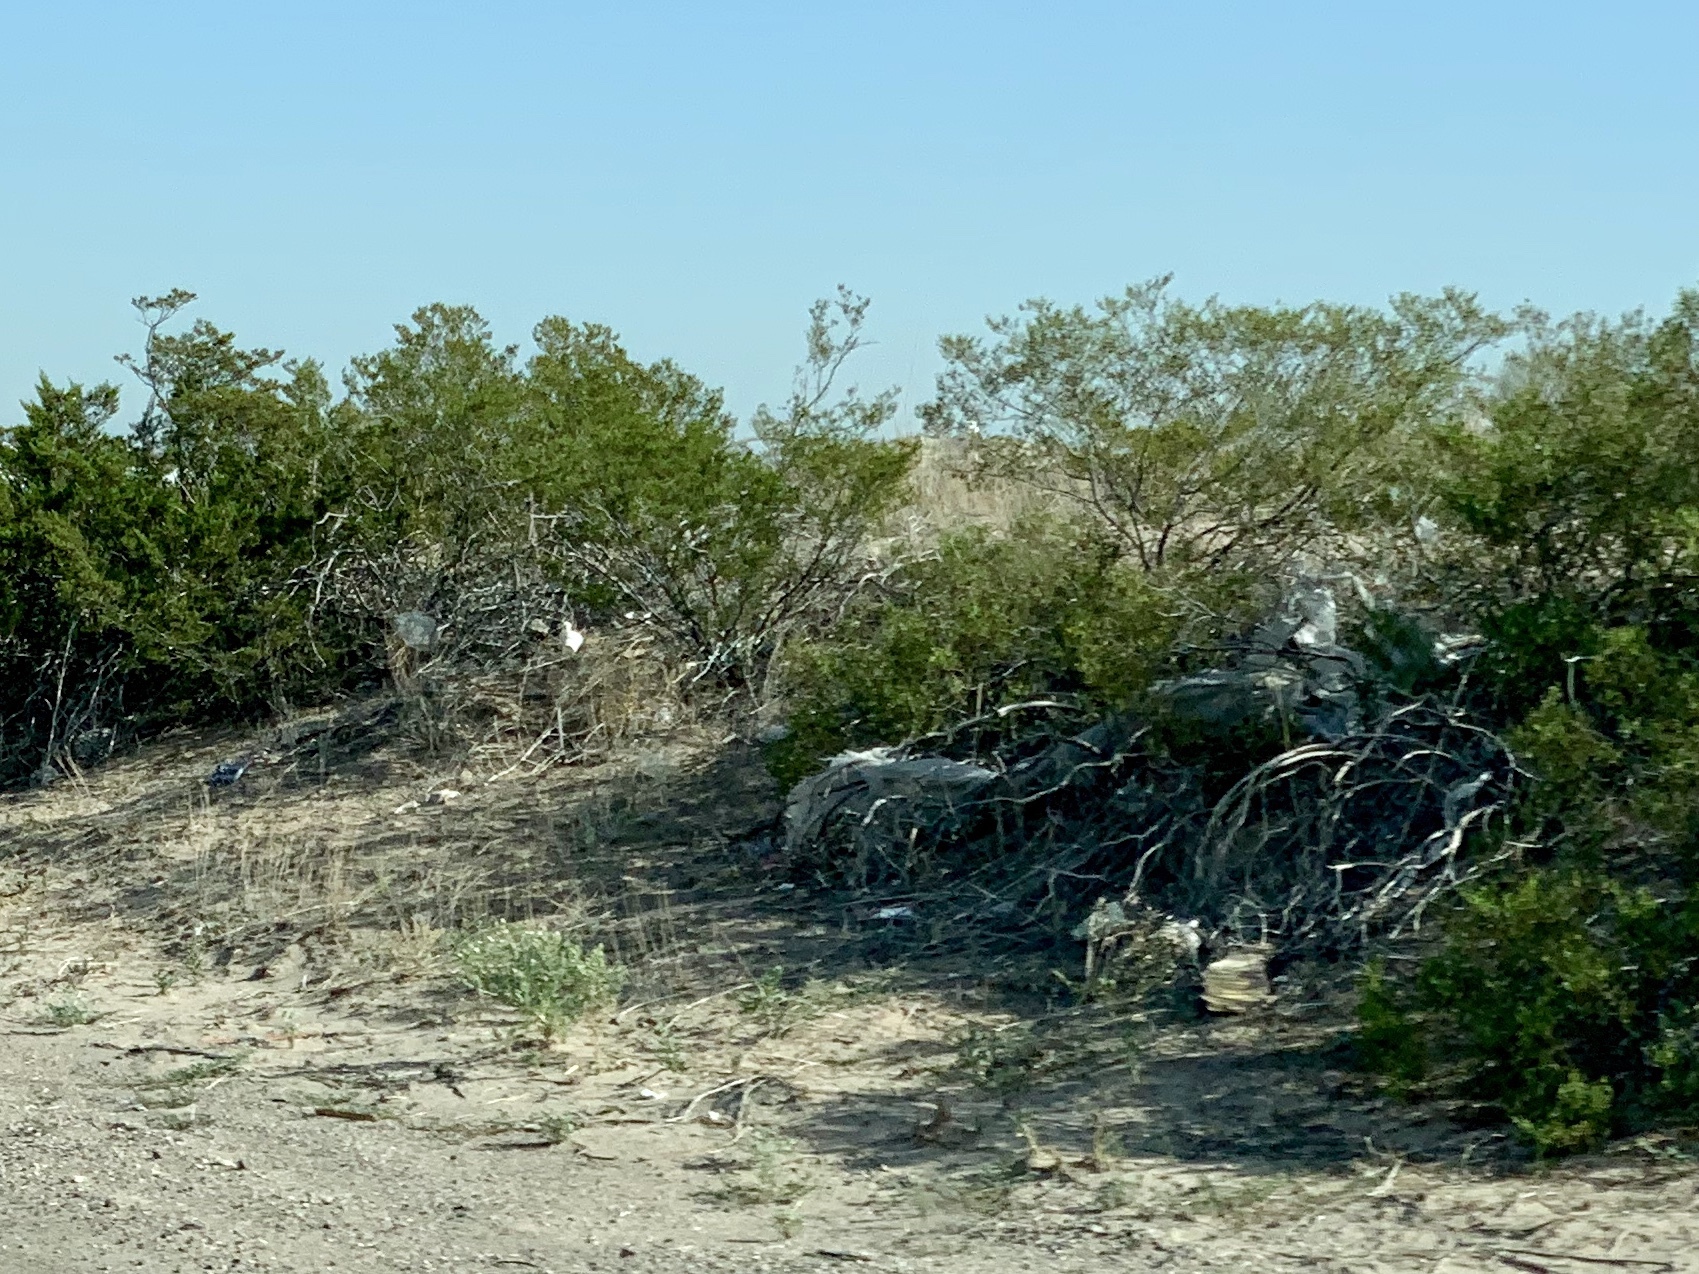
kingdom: Plantae
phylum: Tracheophyta
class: Magnoliopsida
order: Zygophyllales
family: Zygophyllaceae
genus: Larrea
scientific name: Larrea tridentata
